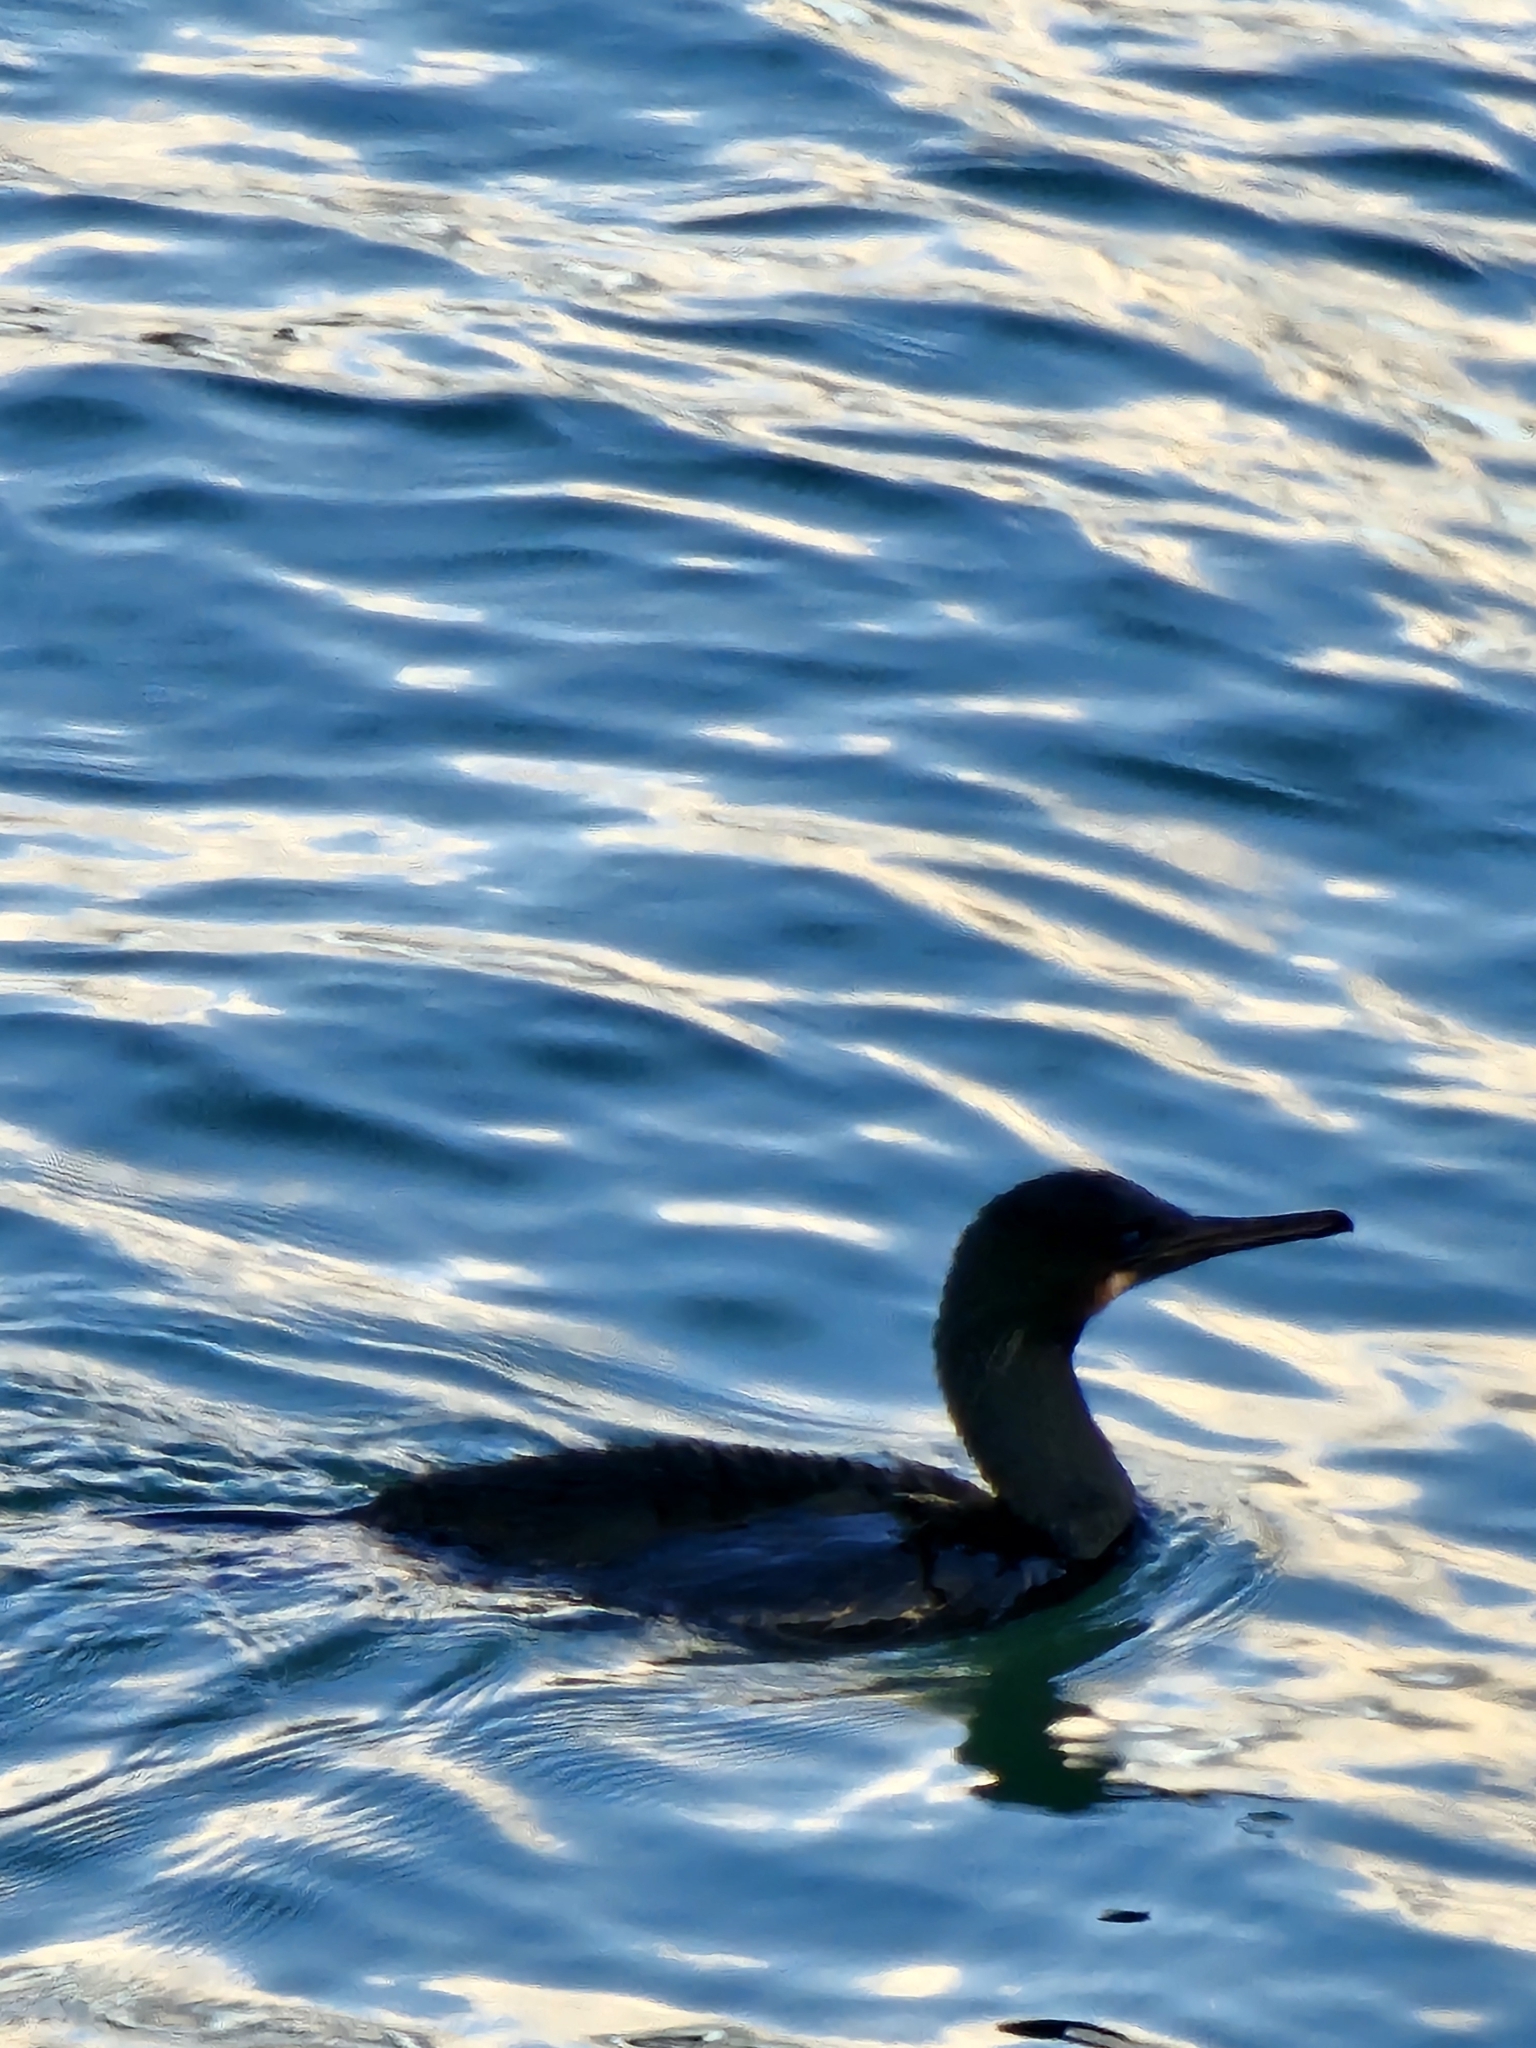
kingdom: Animalia
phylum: Chordata
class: Aves
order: Suliformes
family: Phalacrocoracidae
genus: Urile
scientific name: Urile penicillatus
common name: Brandt's cormorant
